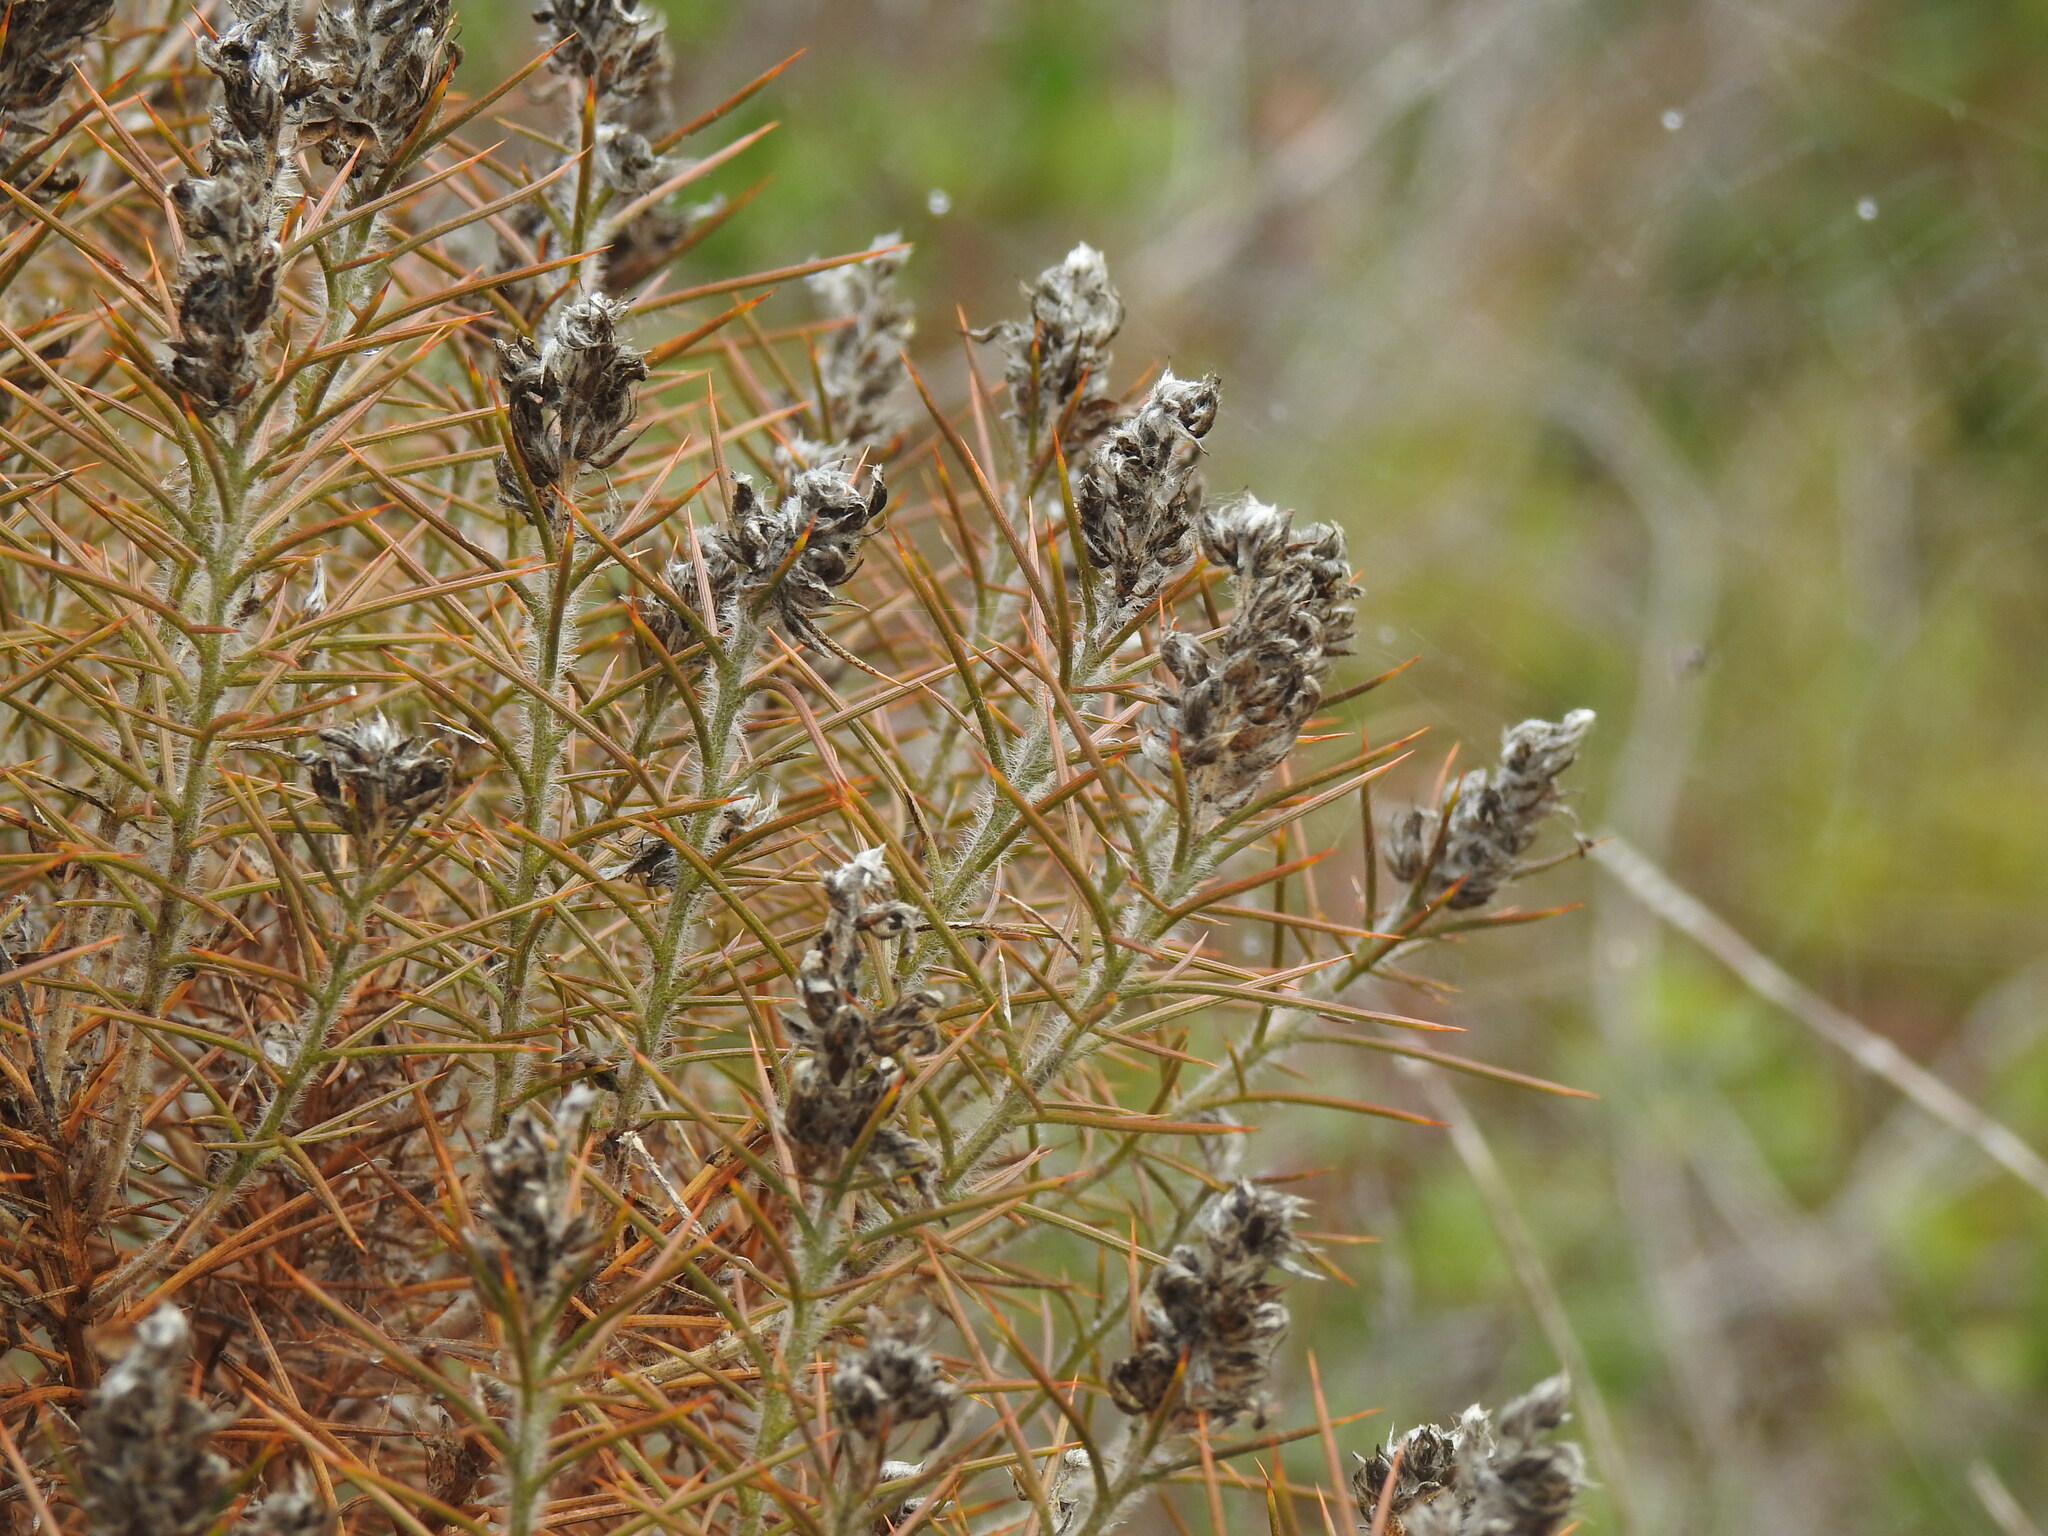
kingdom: Plantae
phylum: Tracheophyta
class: Magnoliopsida
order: Fabales
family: Fabaceae
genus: Genista
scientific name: Genista hirsuta
